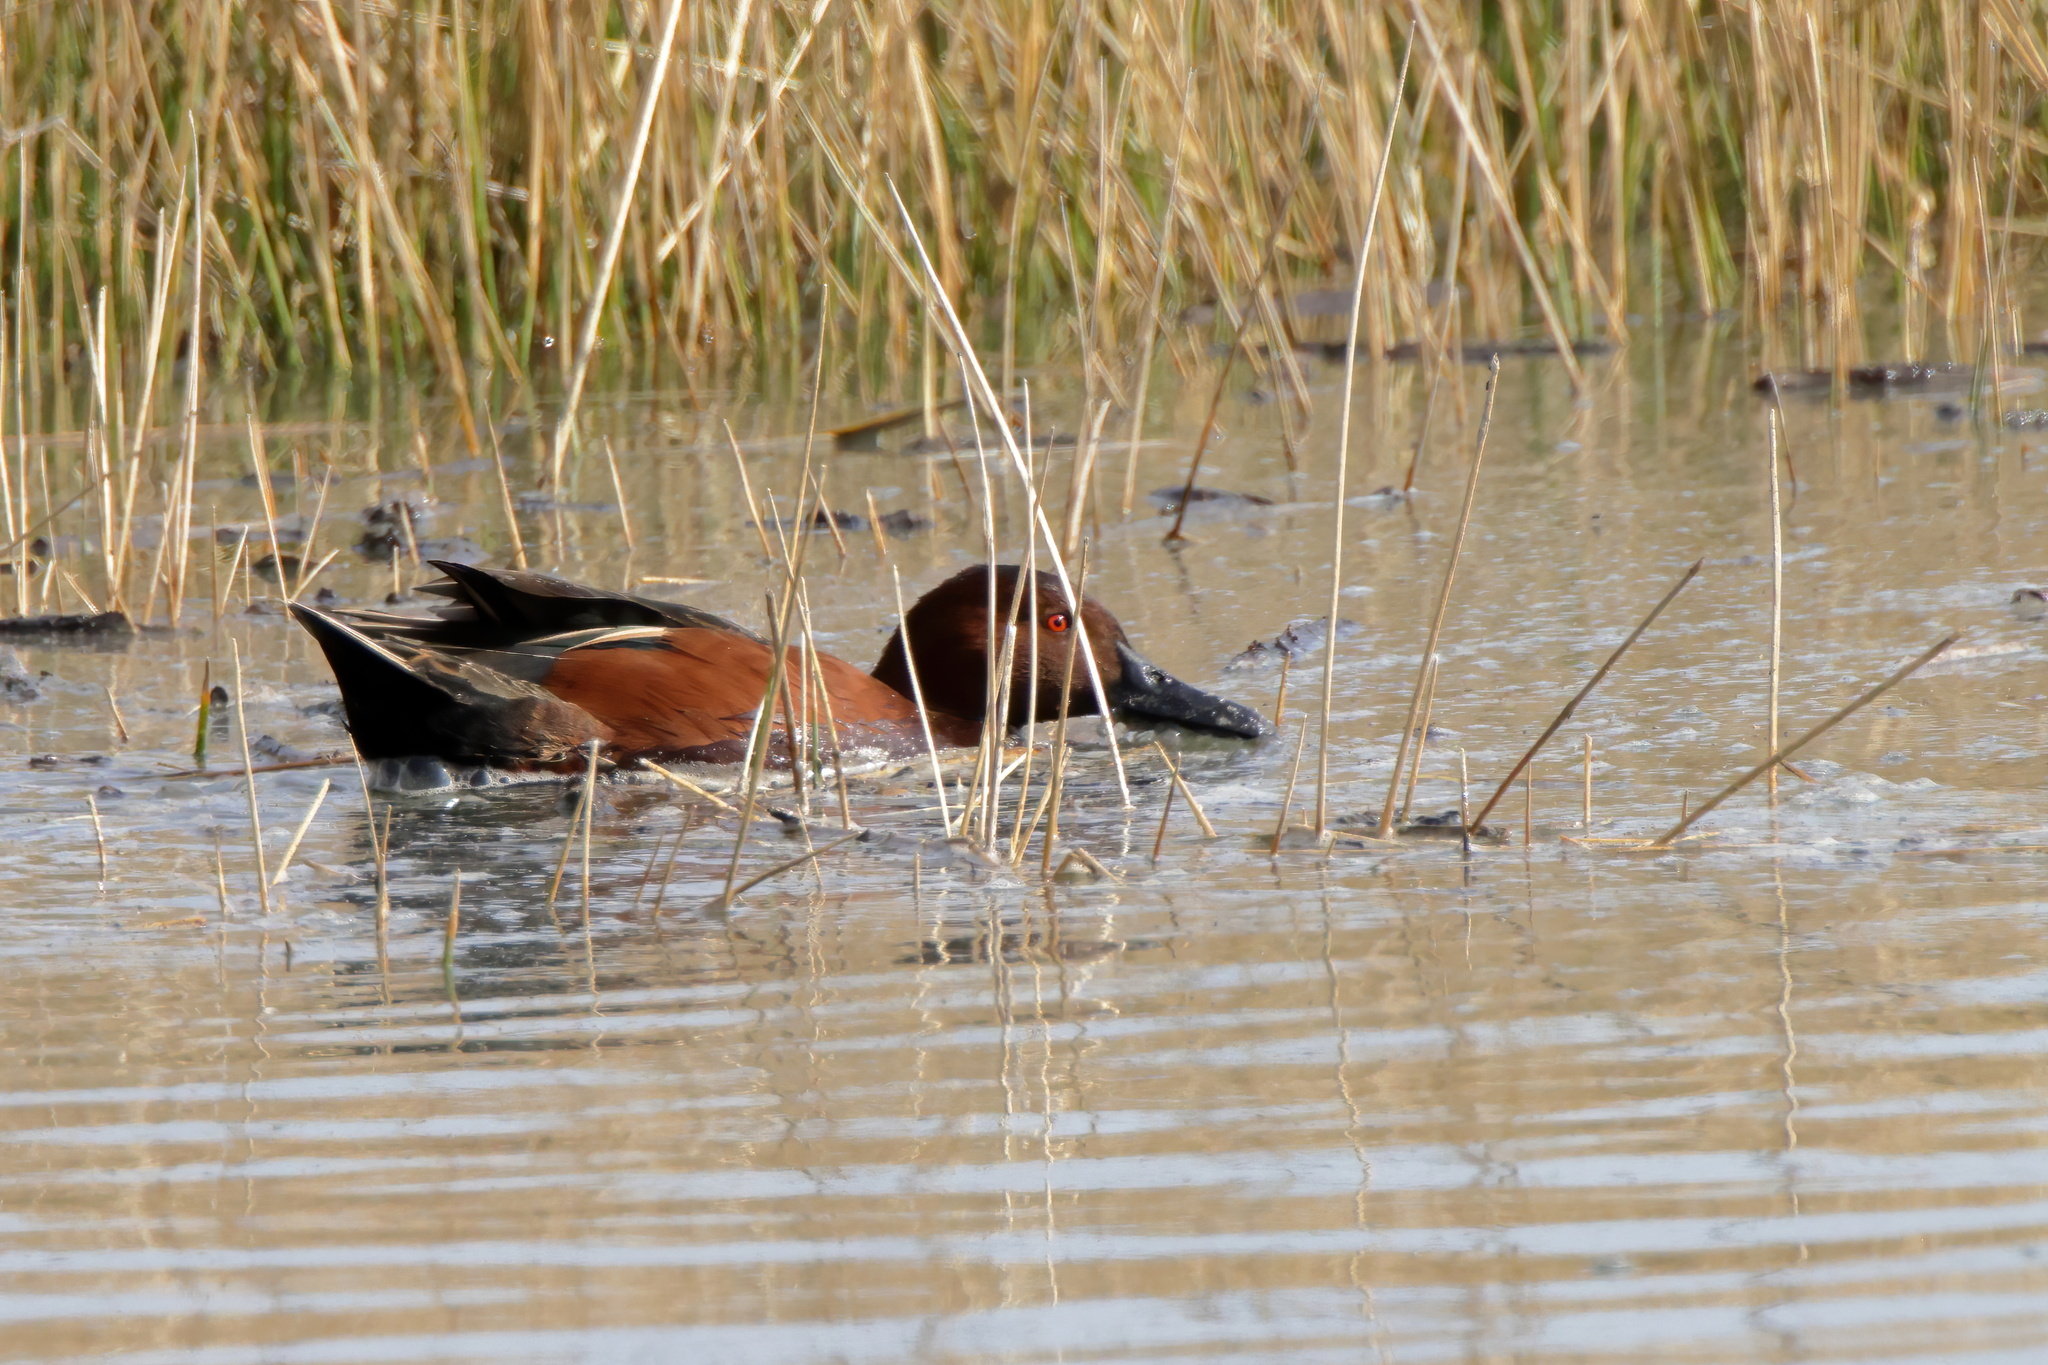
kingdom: Animalia
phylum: Chordata
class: Aves
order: Anseriformes
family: Anatidae
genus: Spatula
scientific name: Spatula cyanoptera
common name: Cinnamon teal
